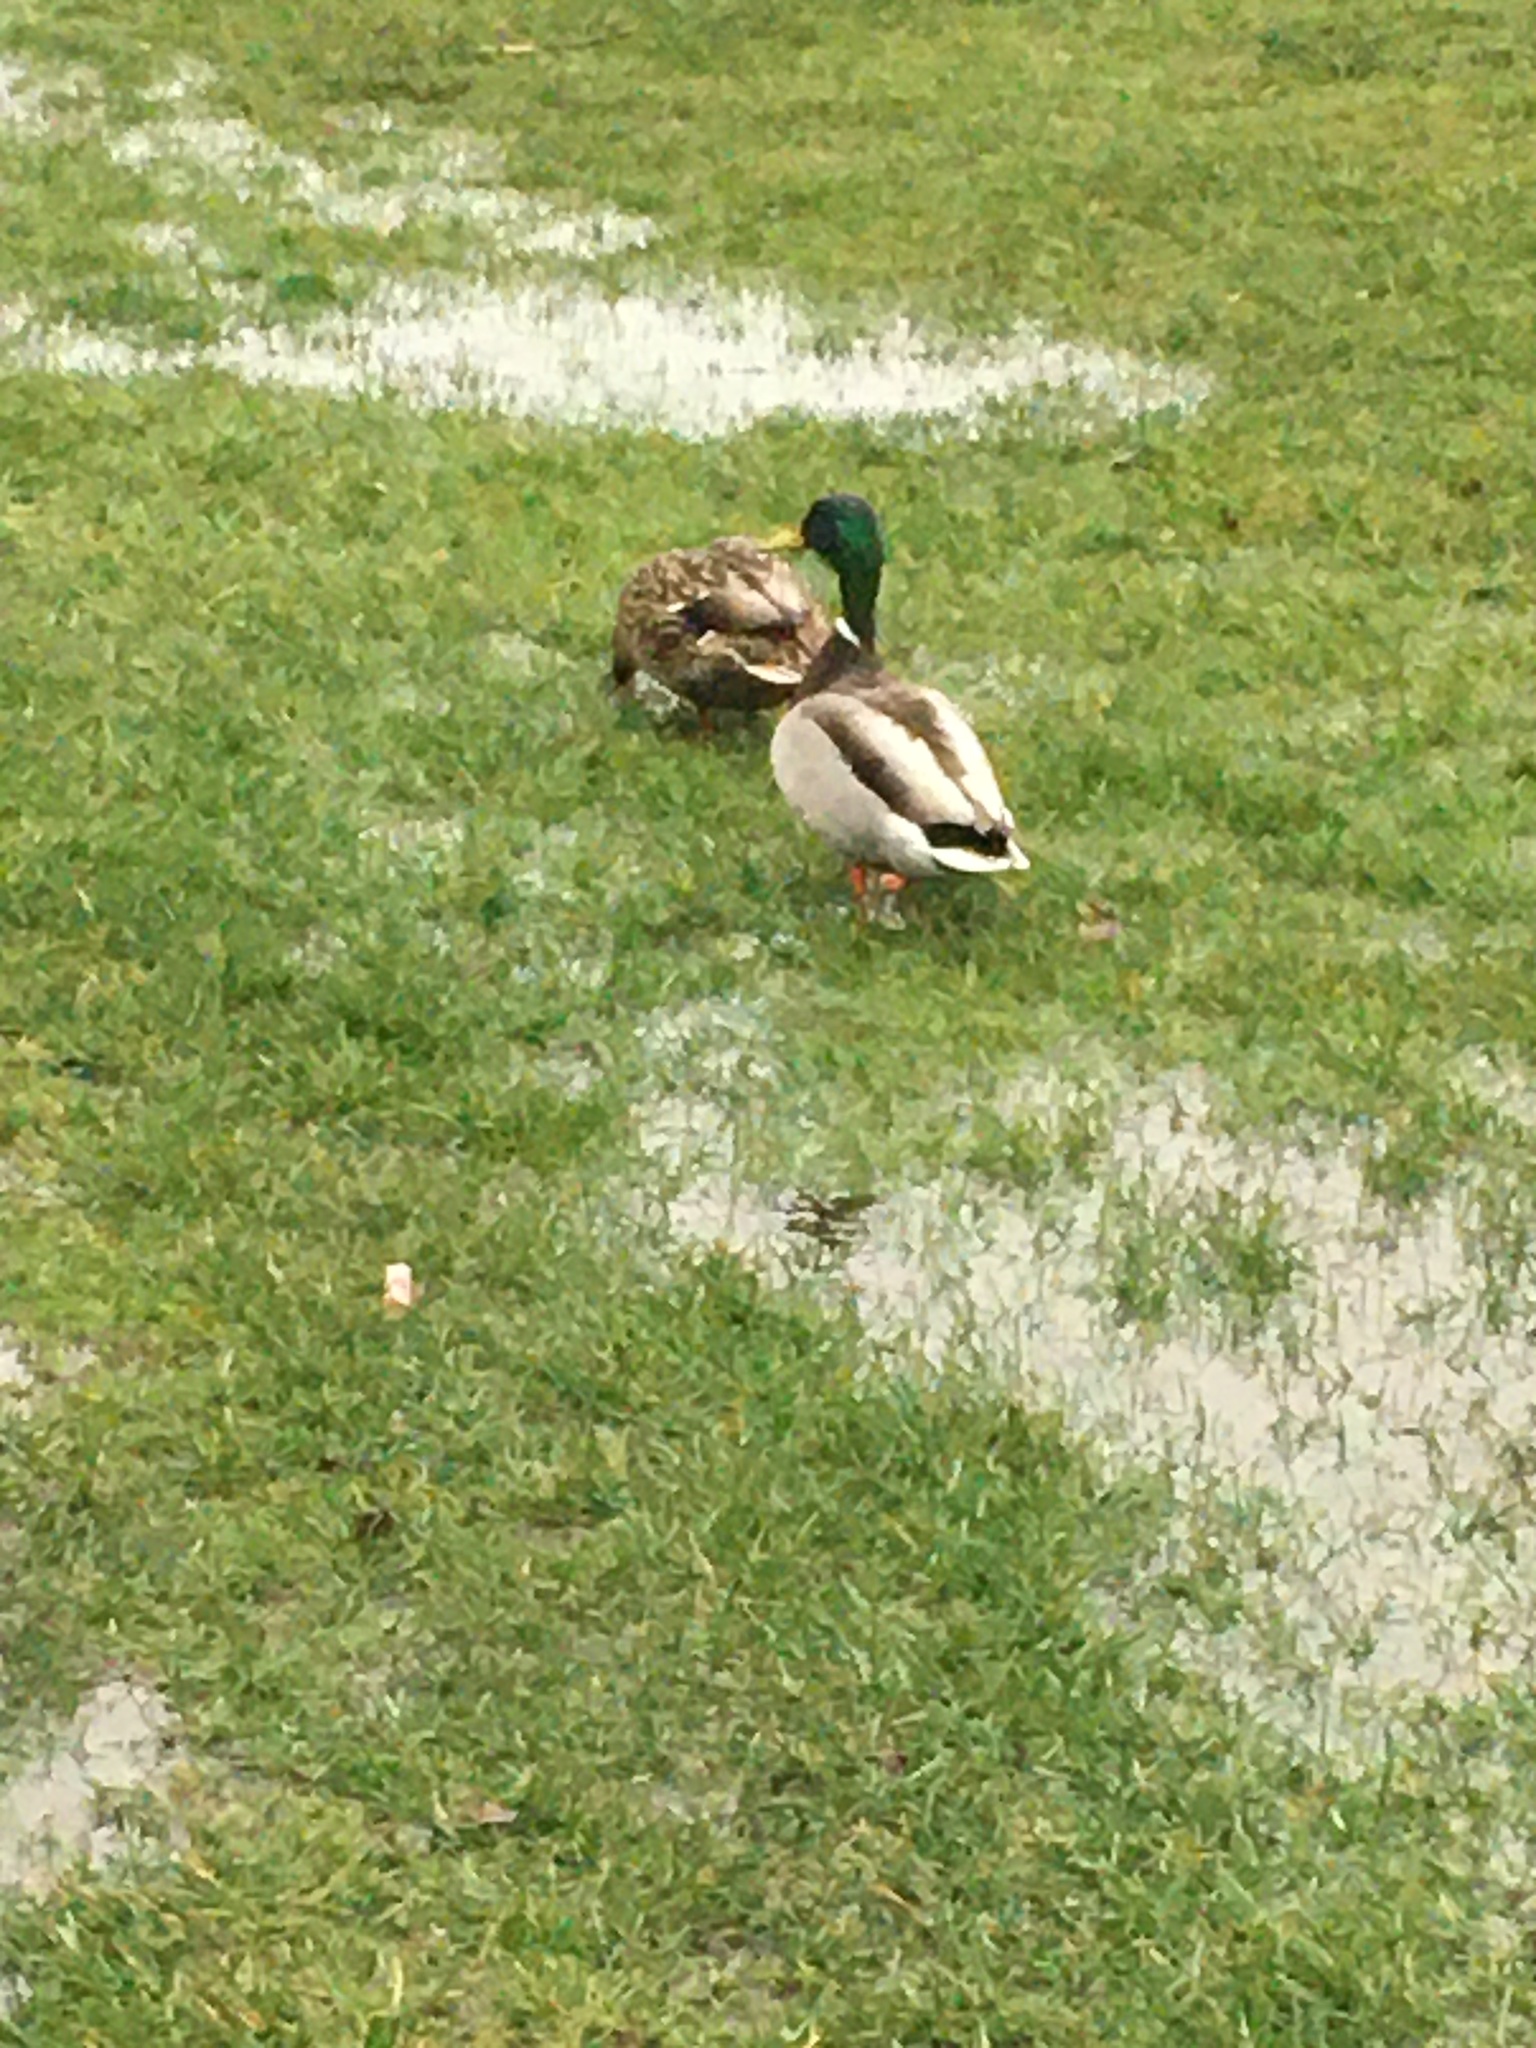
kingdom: Animalia
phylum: Chordata
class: Aves
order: Anseriformes
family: Anatidae
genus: Anas
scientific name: Anas platyrhynchos
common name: Mallard
